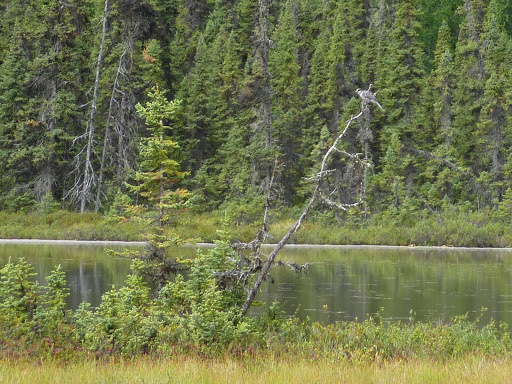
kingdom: Animalia
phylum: Chordata
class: Aves
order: Passeriformes
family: Corvidae
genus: Perisoreus
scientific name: Perisoreus canadensis
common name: Gray jay
